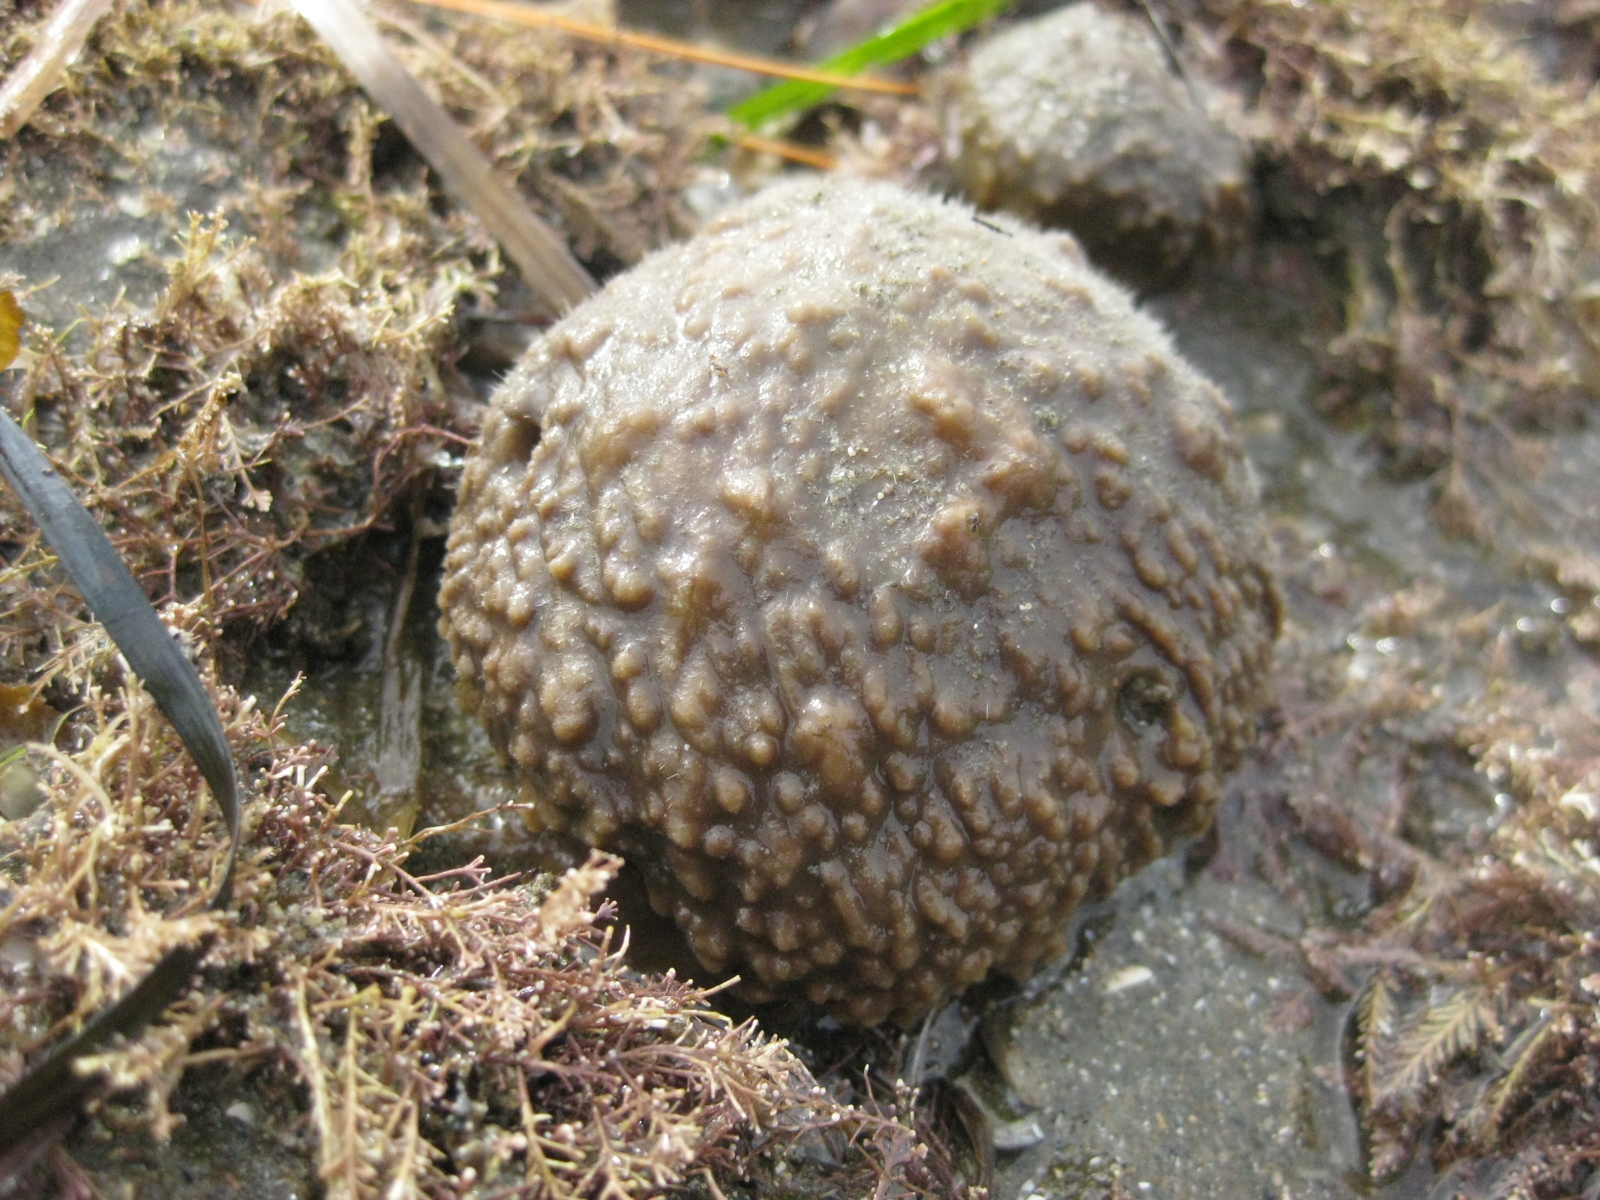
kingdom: Animalia
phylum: Porifera
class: Demospongiae
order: Suberitida
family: Suberitidae
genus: Aaptos
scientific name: Aaptos tenta
